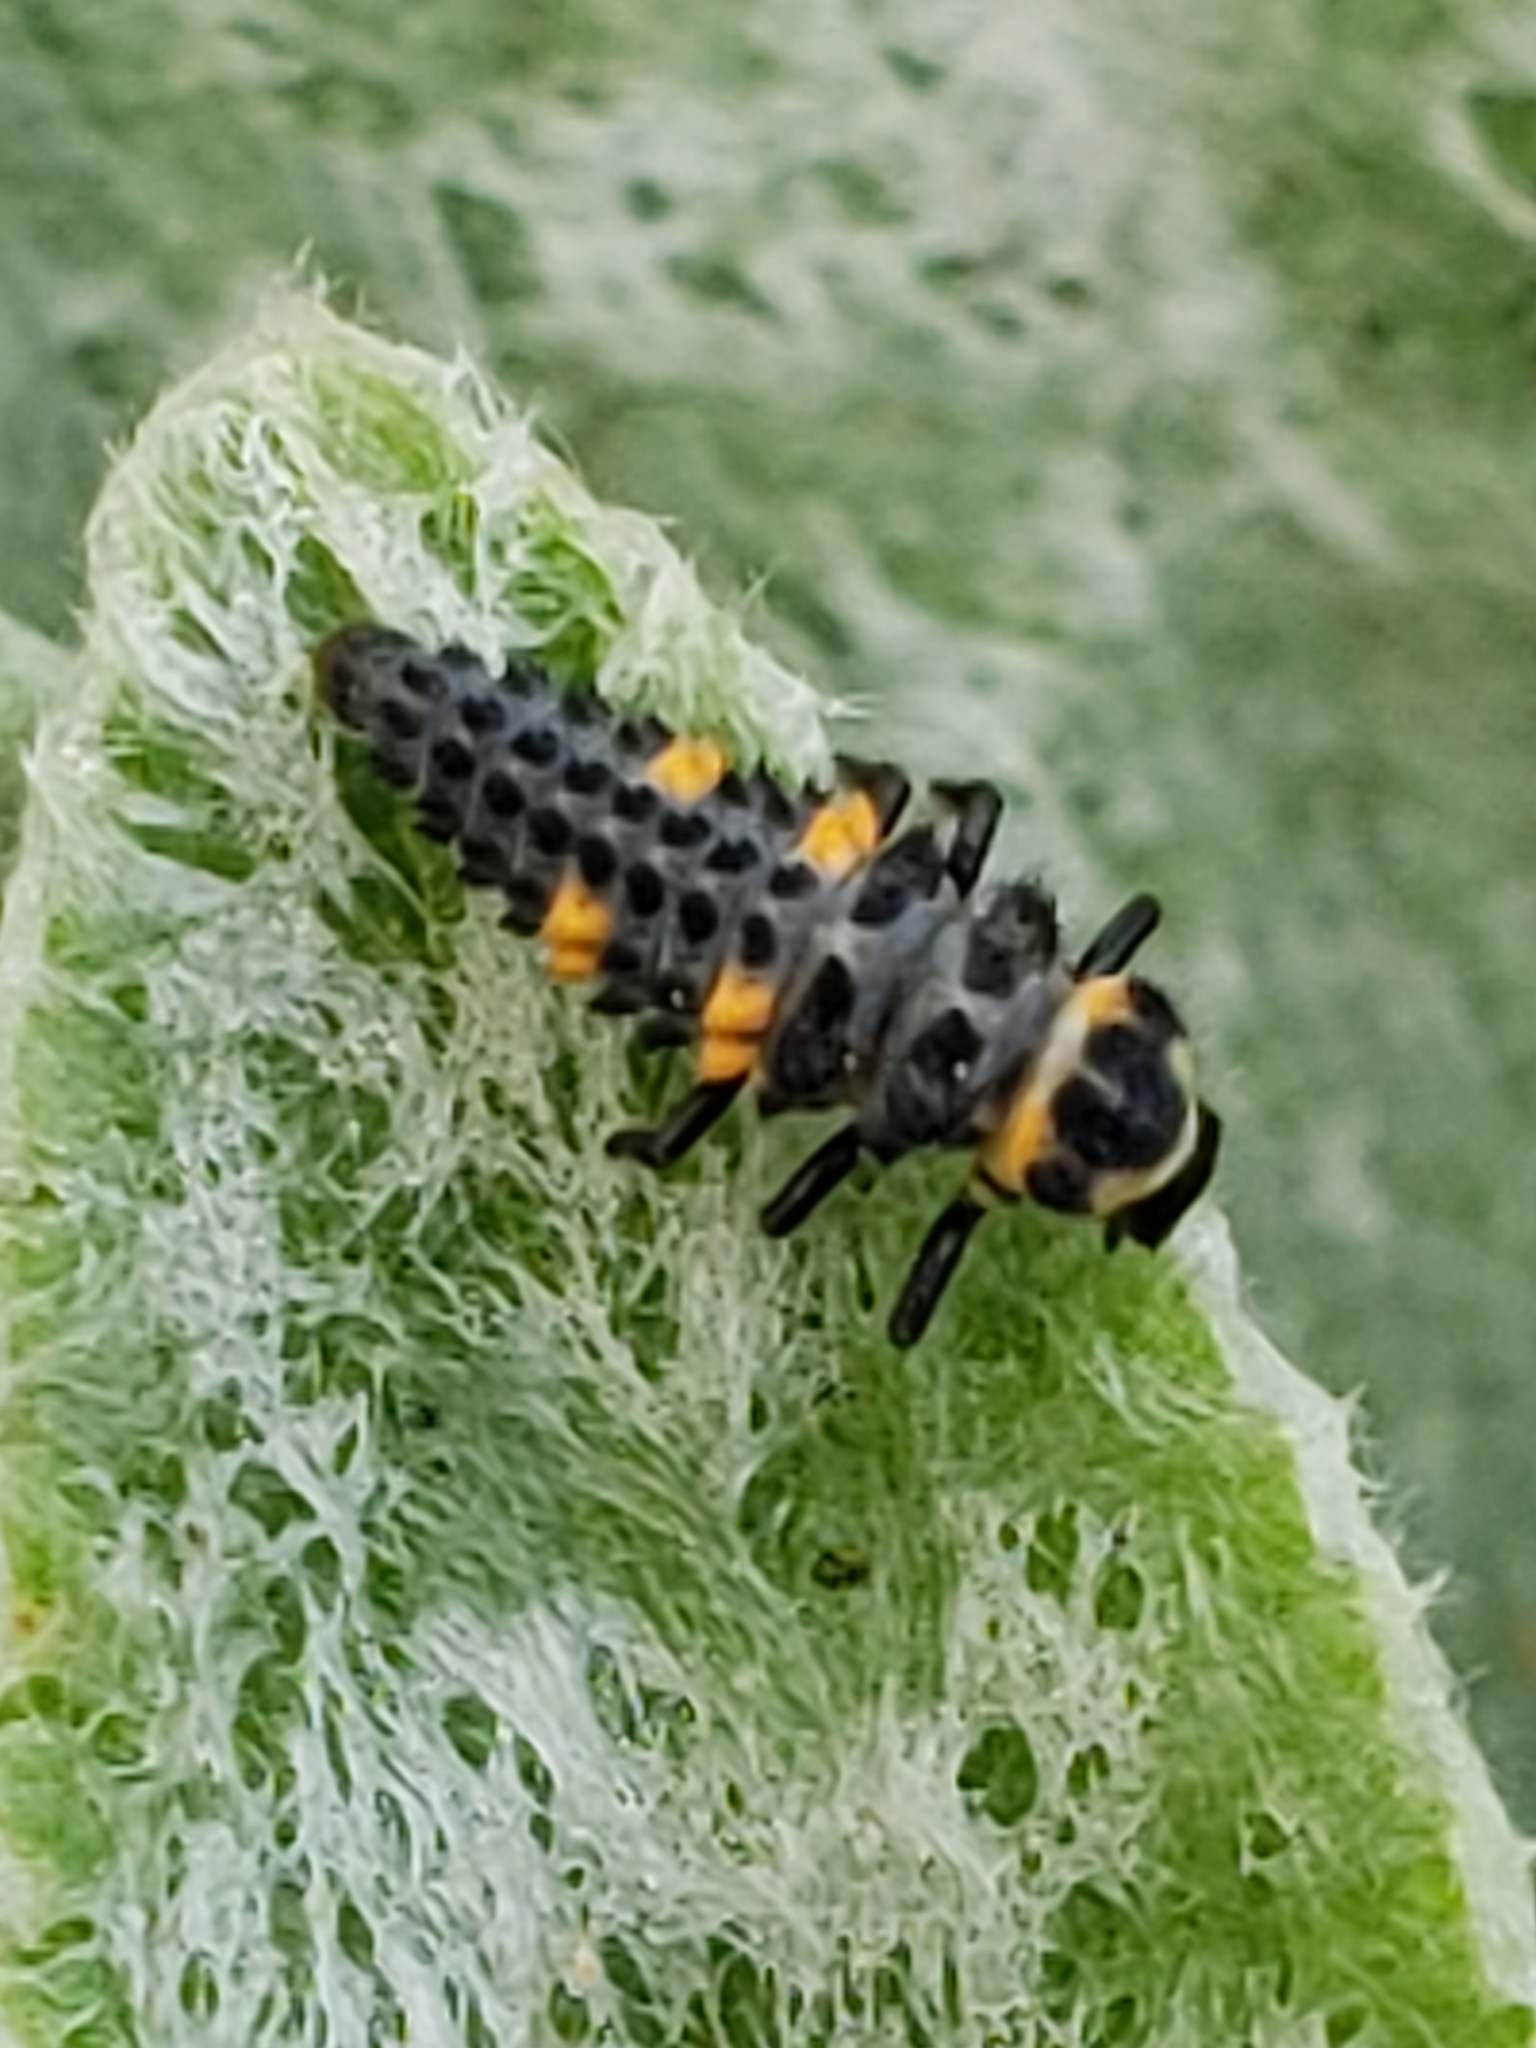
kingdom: Animalia
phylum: Arthropoda
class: Insecta
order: Coleoptera
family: Coccinellidae
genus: Coccinella
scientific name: Coccinella septempunctata
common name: Sevenspotted lady beetle
